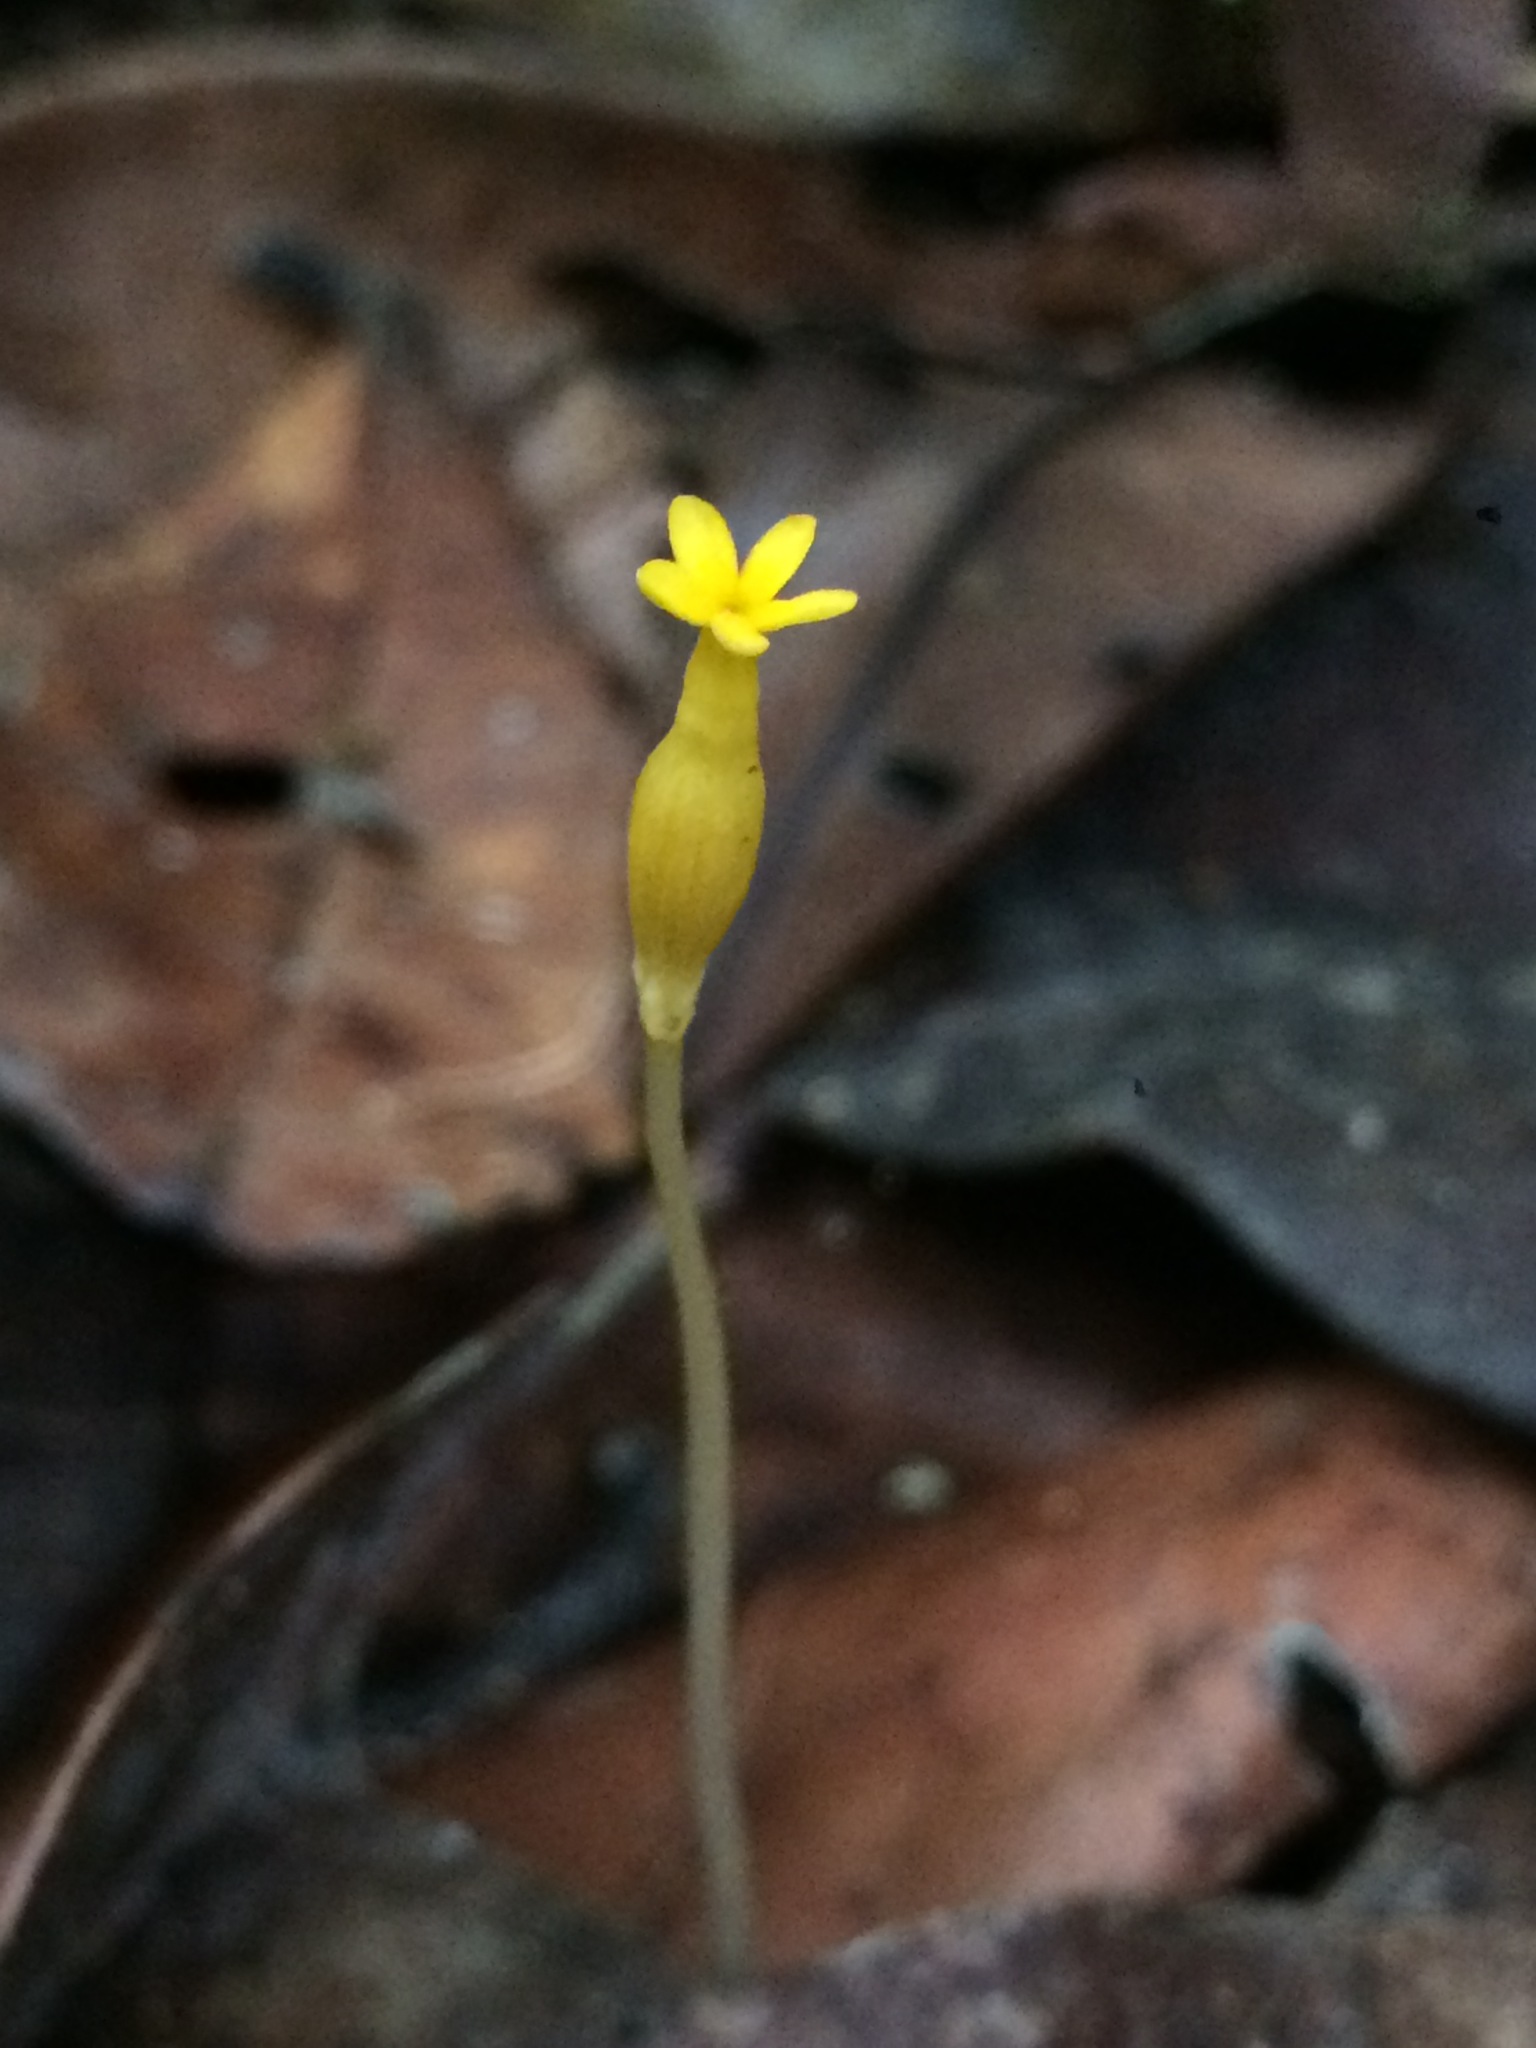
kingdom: Plantae
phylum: Tracheophyta
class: Magnoliopsida
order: Gentianales
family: Gentianaceae
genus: Voyria
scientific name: Voyria tenella
